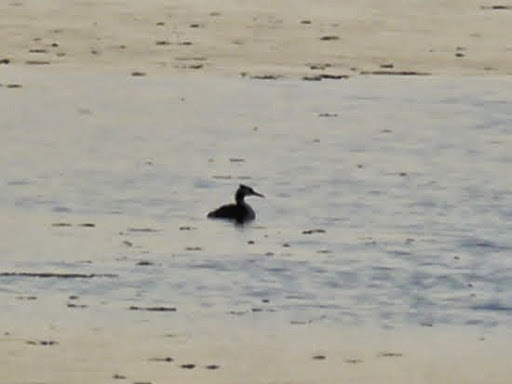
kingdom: Animalia
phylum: Chordata
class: Aves
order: Podicipediformes
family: Podicipedidae
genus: Podiceps
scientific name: Podiceps cristatus
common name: Great crested grebe
